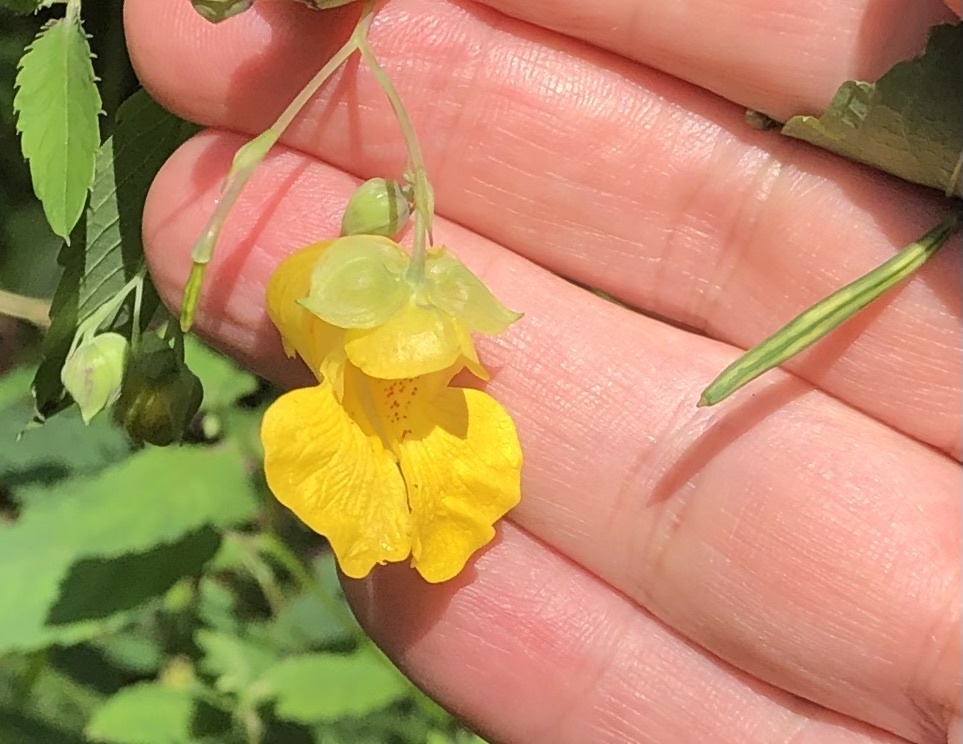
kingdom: Plantae
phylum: Tracheophyta
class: Magnoliopsida
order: Ericales
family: Balsaminaceae
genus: Impatiens
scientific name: Impatiens pallida
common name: Pale snapweed
